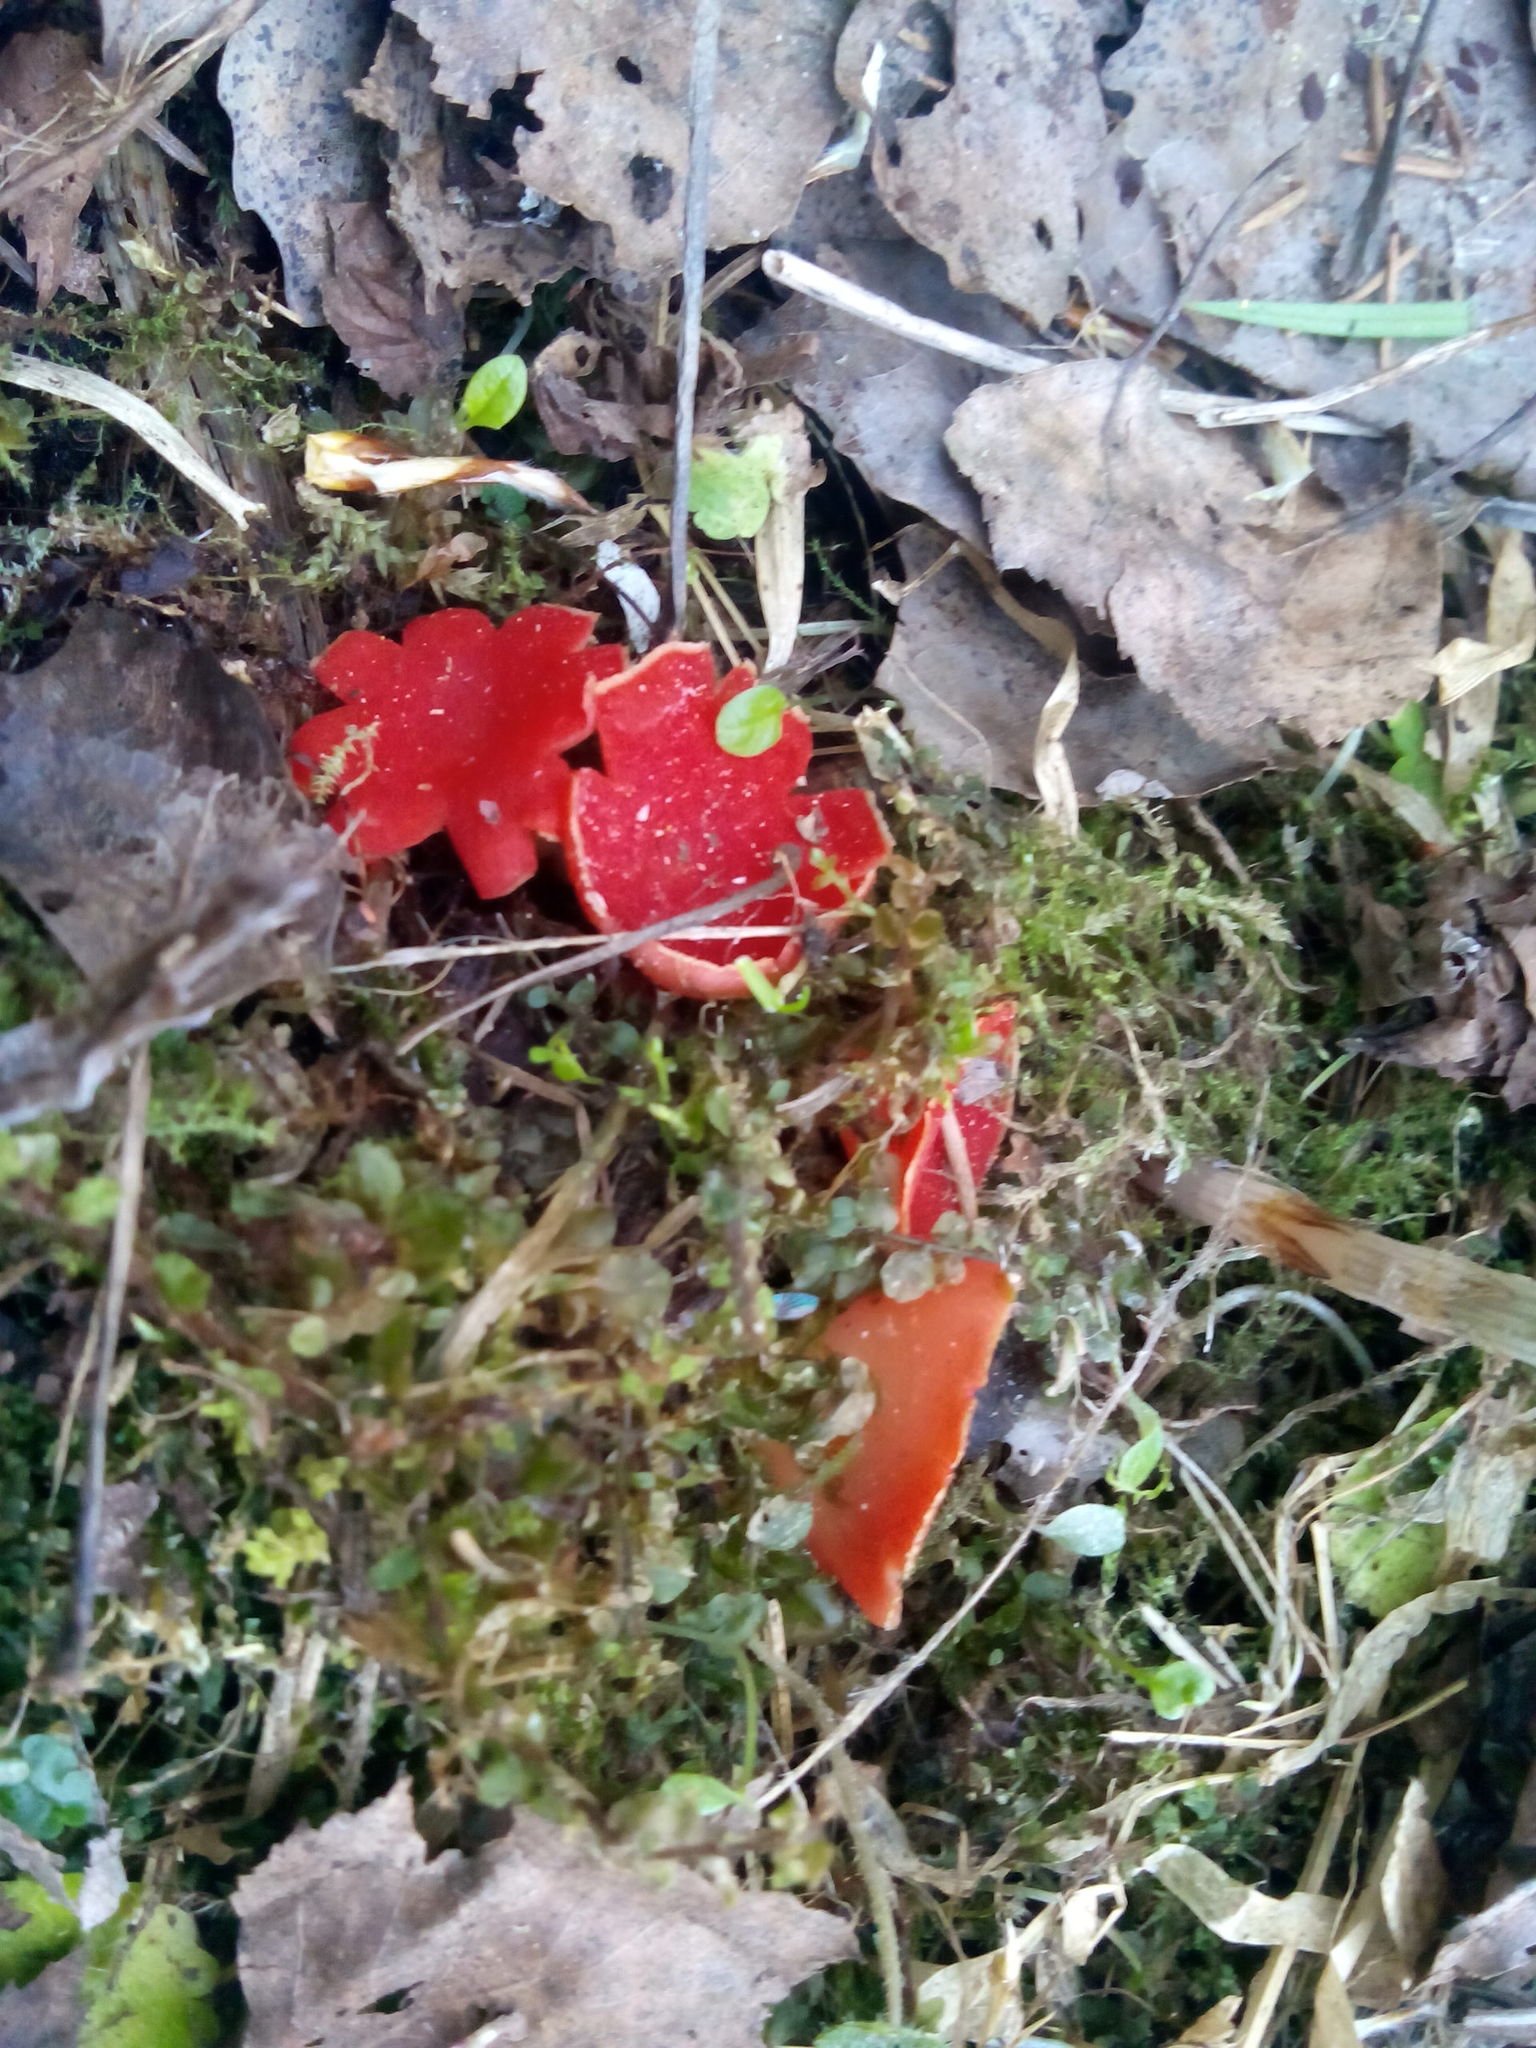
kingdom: Fungi
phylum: Ascomycota
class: Pezizomycetes
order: Pezizales
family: Sarcoscyphaceae
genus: Sarcoscypha
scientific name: Sarcoscypha austriaca
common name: Scarlet elfcup
